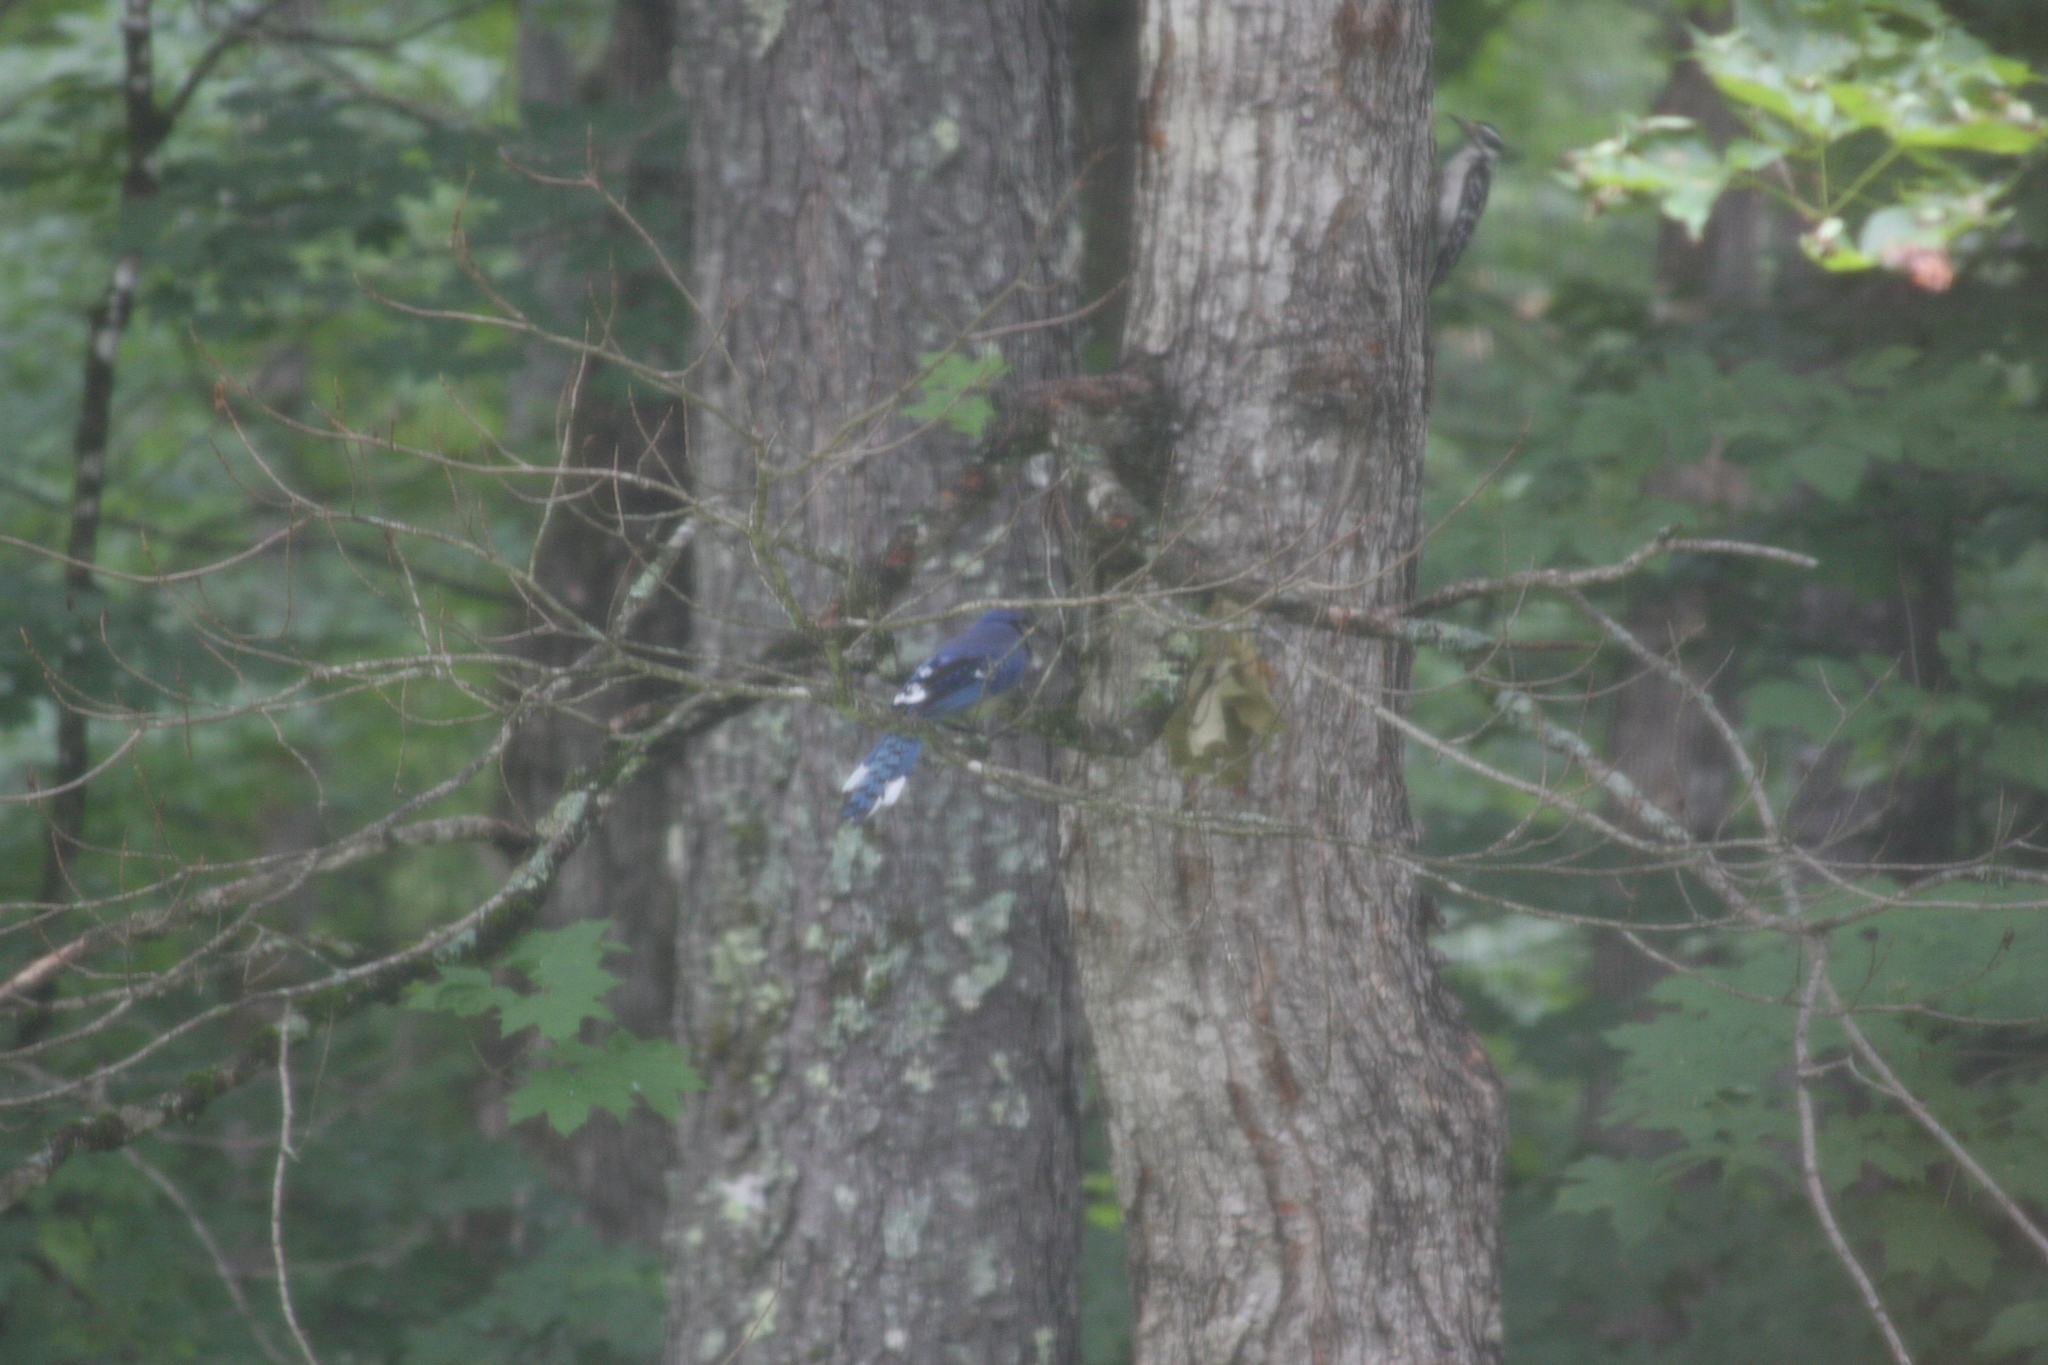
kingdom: Animalia
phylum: Chordata
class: Aves
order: Passeriformes
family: Corvidae
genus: Cyanocitta
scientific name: Cyanocitta cristata
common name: Blue jay
